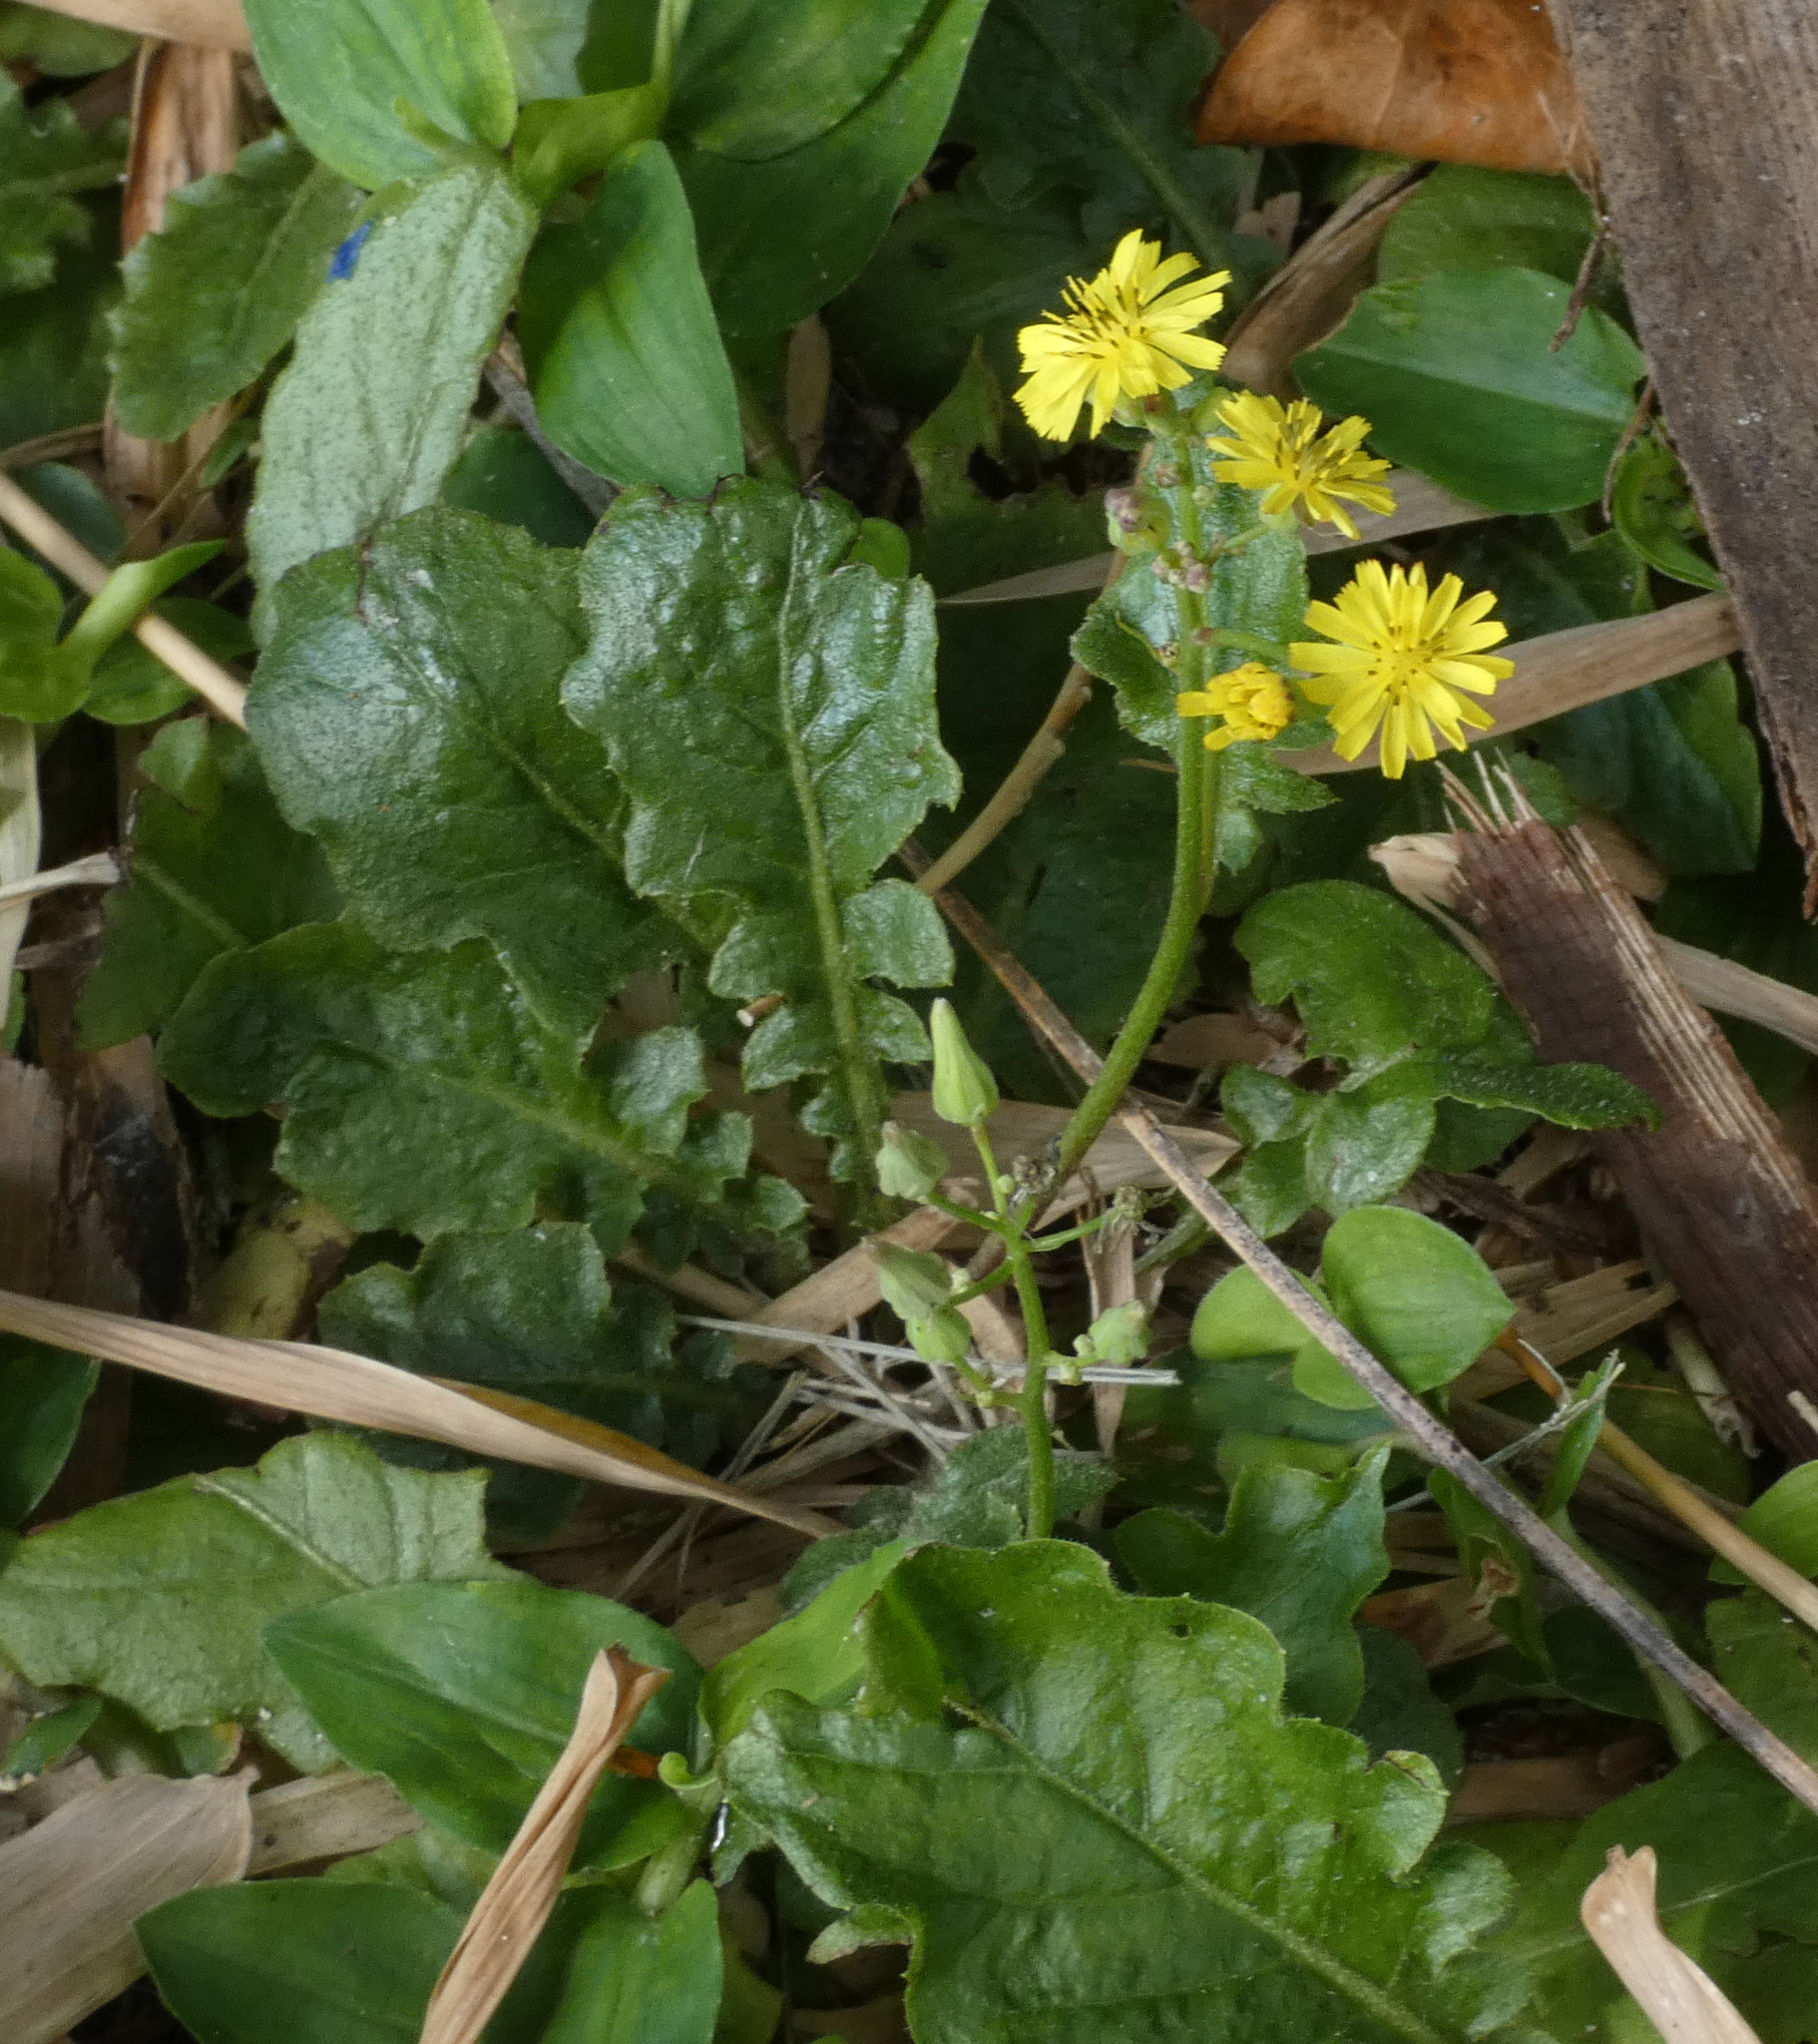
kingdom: Plantae
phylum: Tracheophyta
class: Magnoliopsida
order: Asterales
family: Asteraceae
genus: Youngia
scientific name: Youngia japonica
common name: Oriental false hawksbeard
